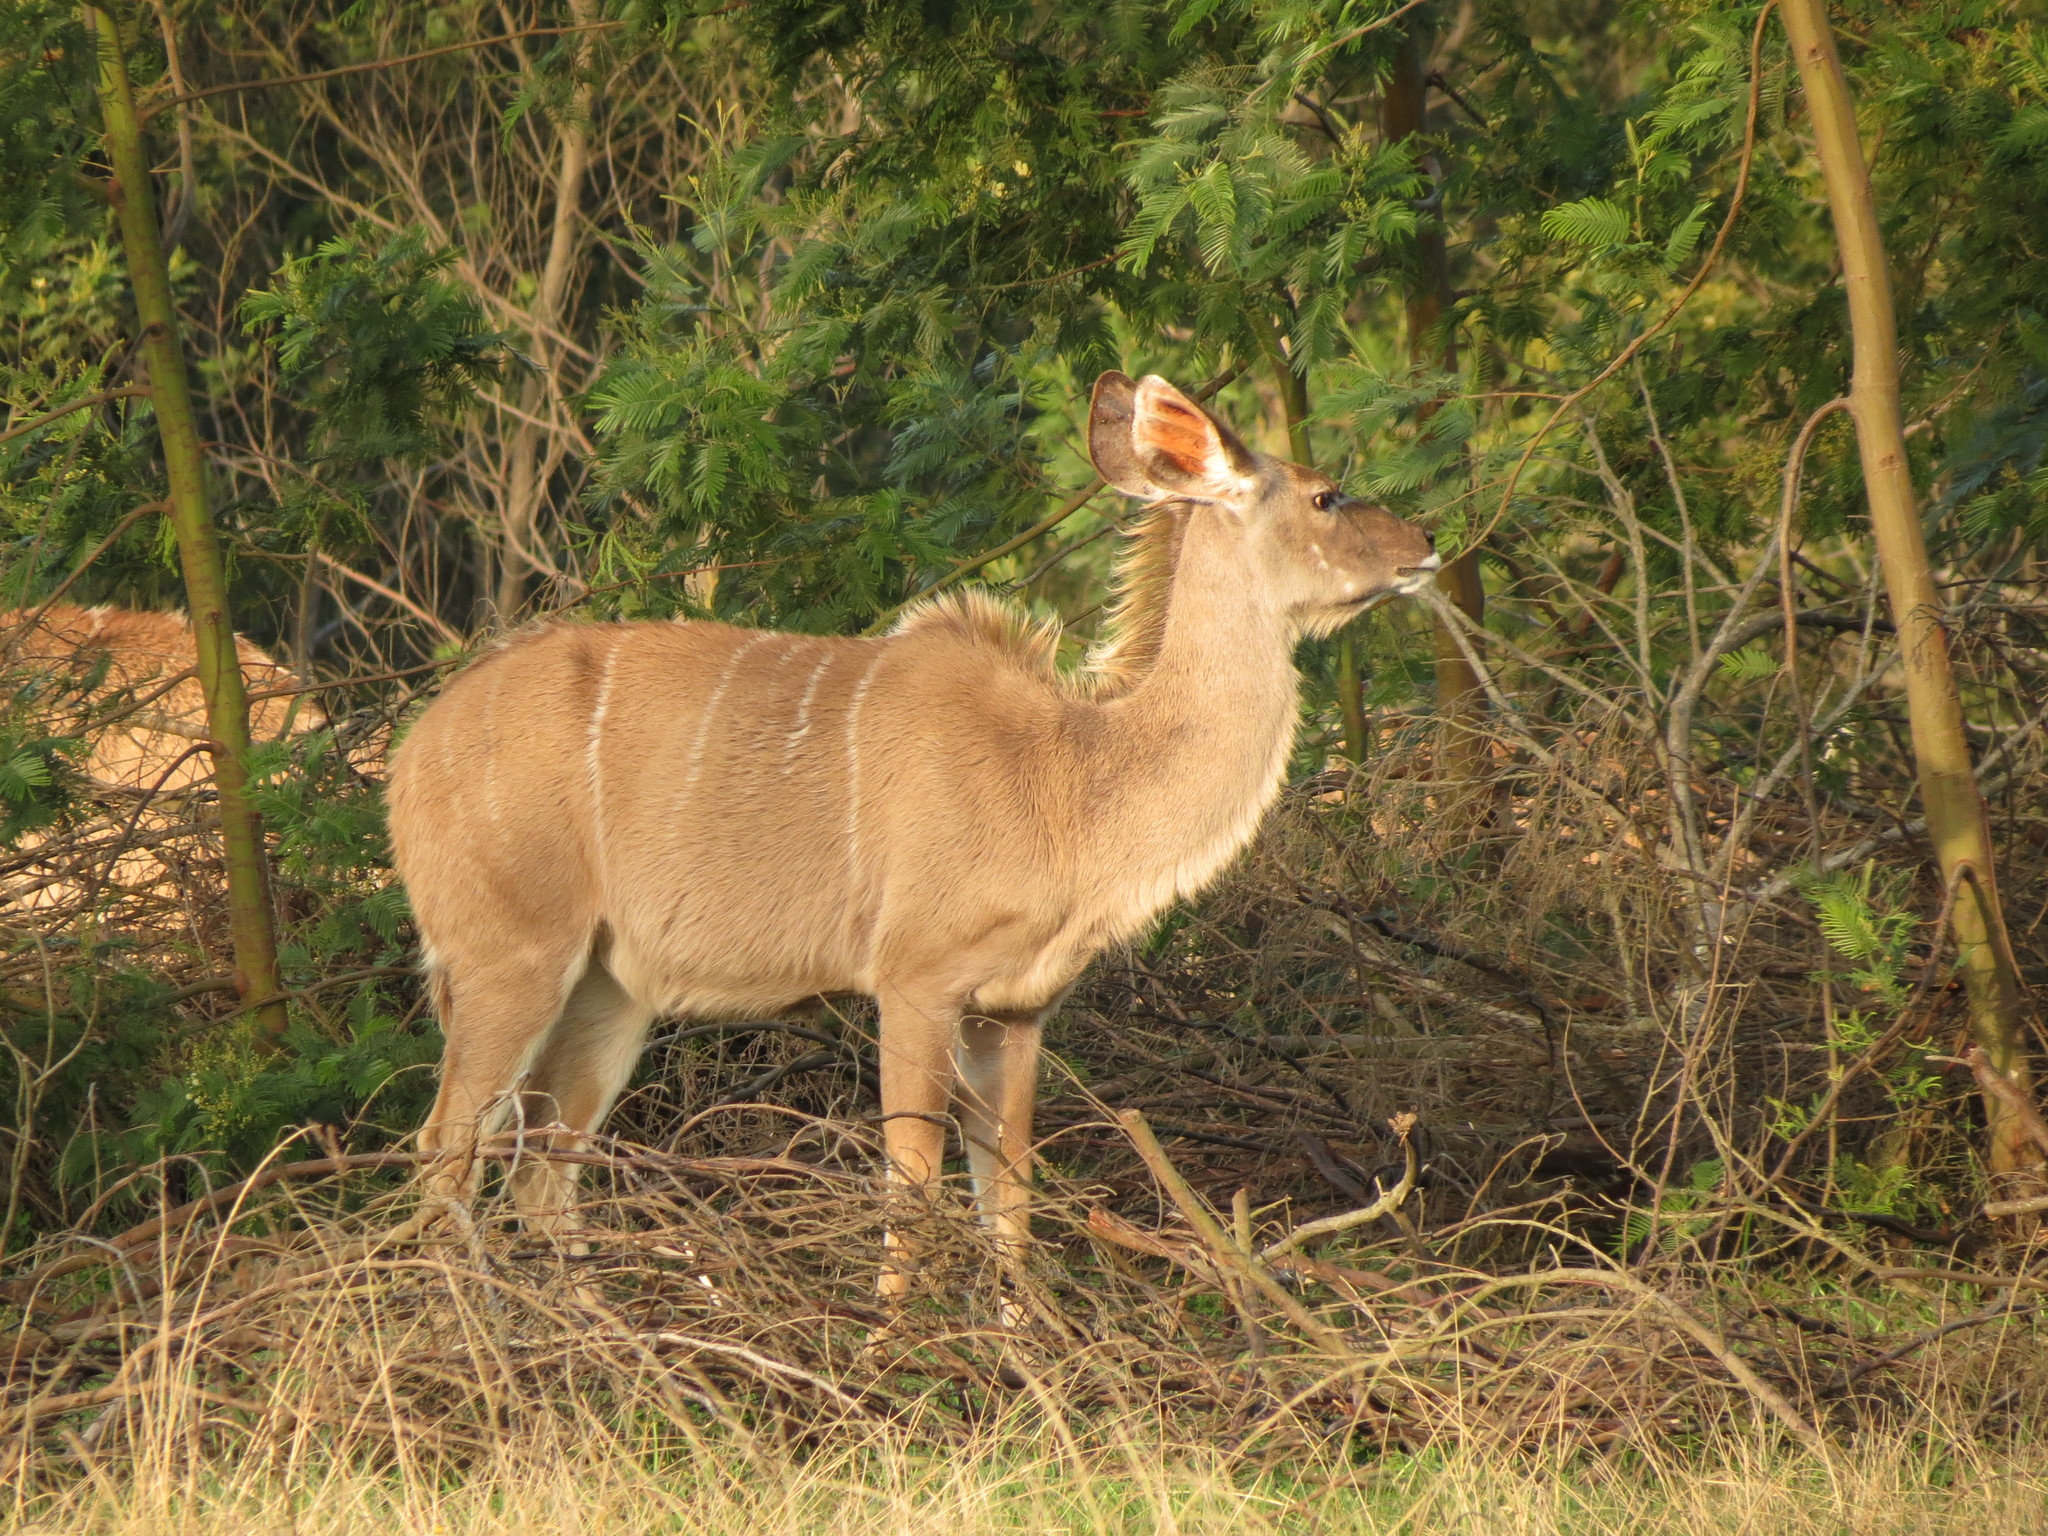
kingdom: Animalia
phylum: Chordata
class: Mammalia
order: Artiodactyla
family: Bovidae
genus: Tragelaphus
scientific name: Tragelaphus strepsiceros
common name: Greater kudu
